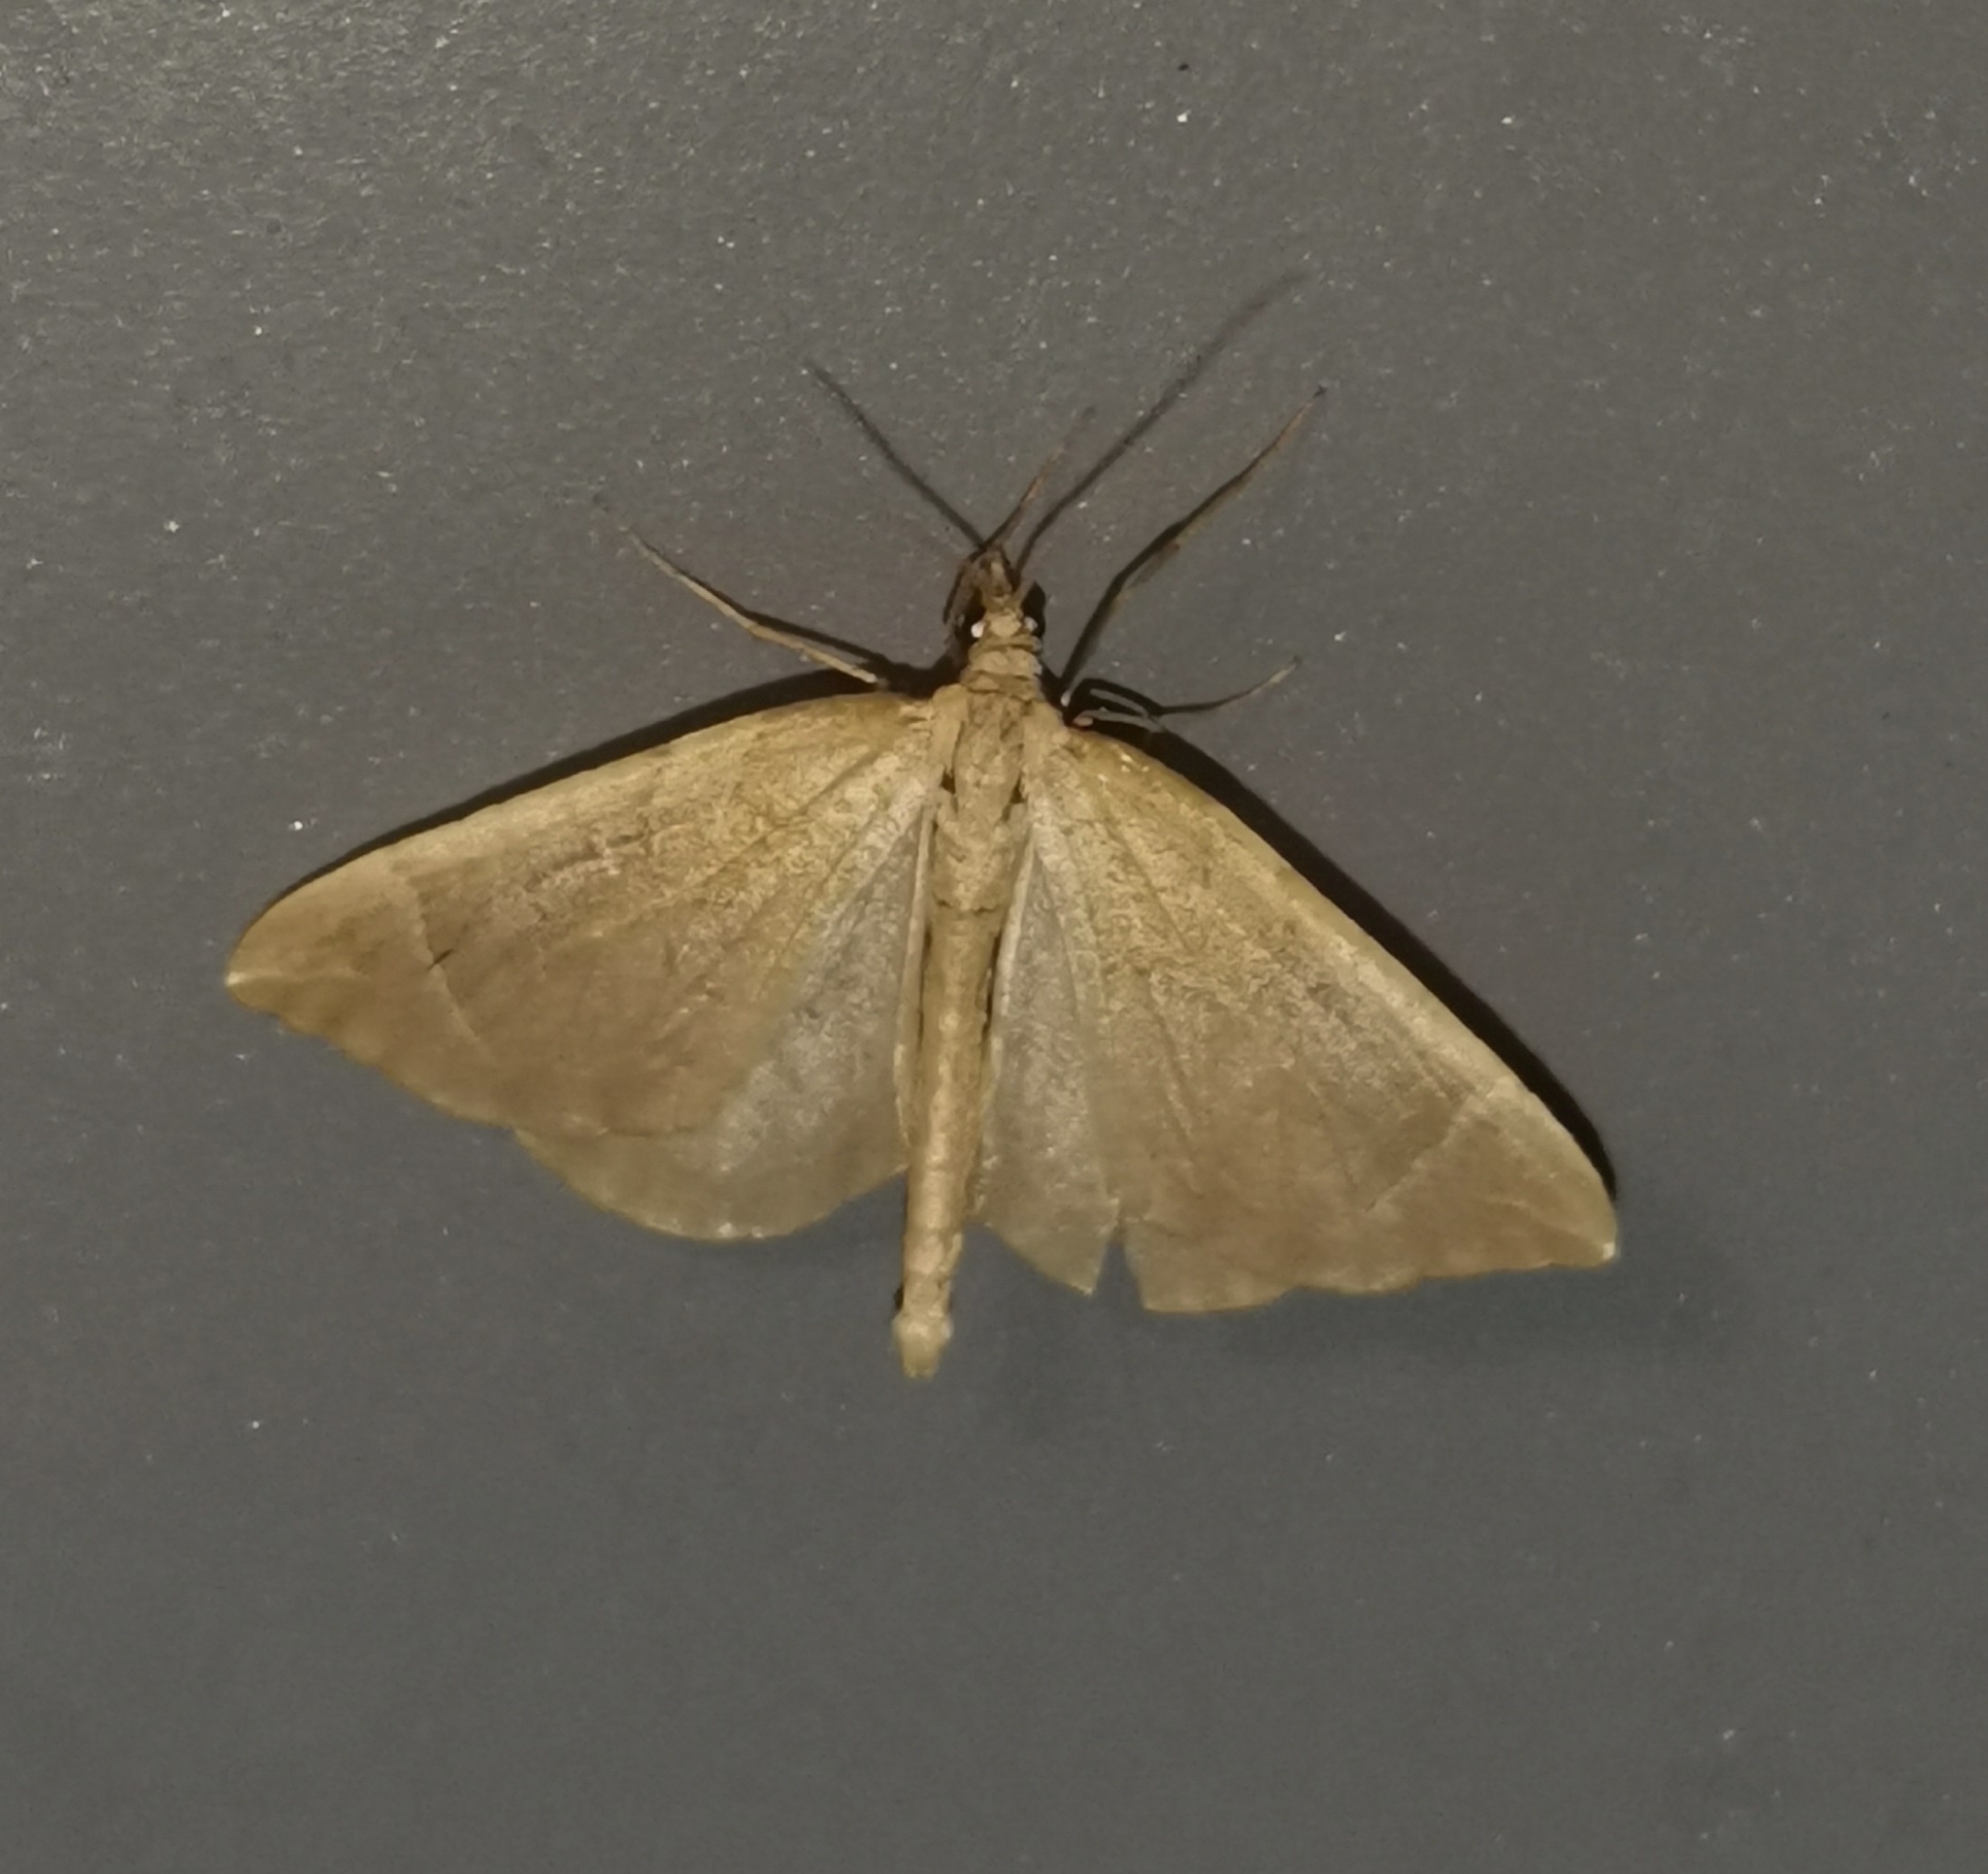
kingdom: Animalia
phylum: Arthropoda
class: Insecta
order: Lepidoptera
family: Geometridae
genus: Eulithis
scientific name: Eulithis testata
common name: Chevron
